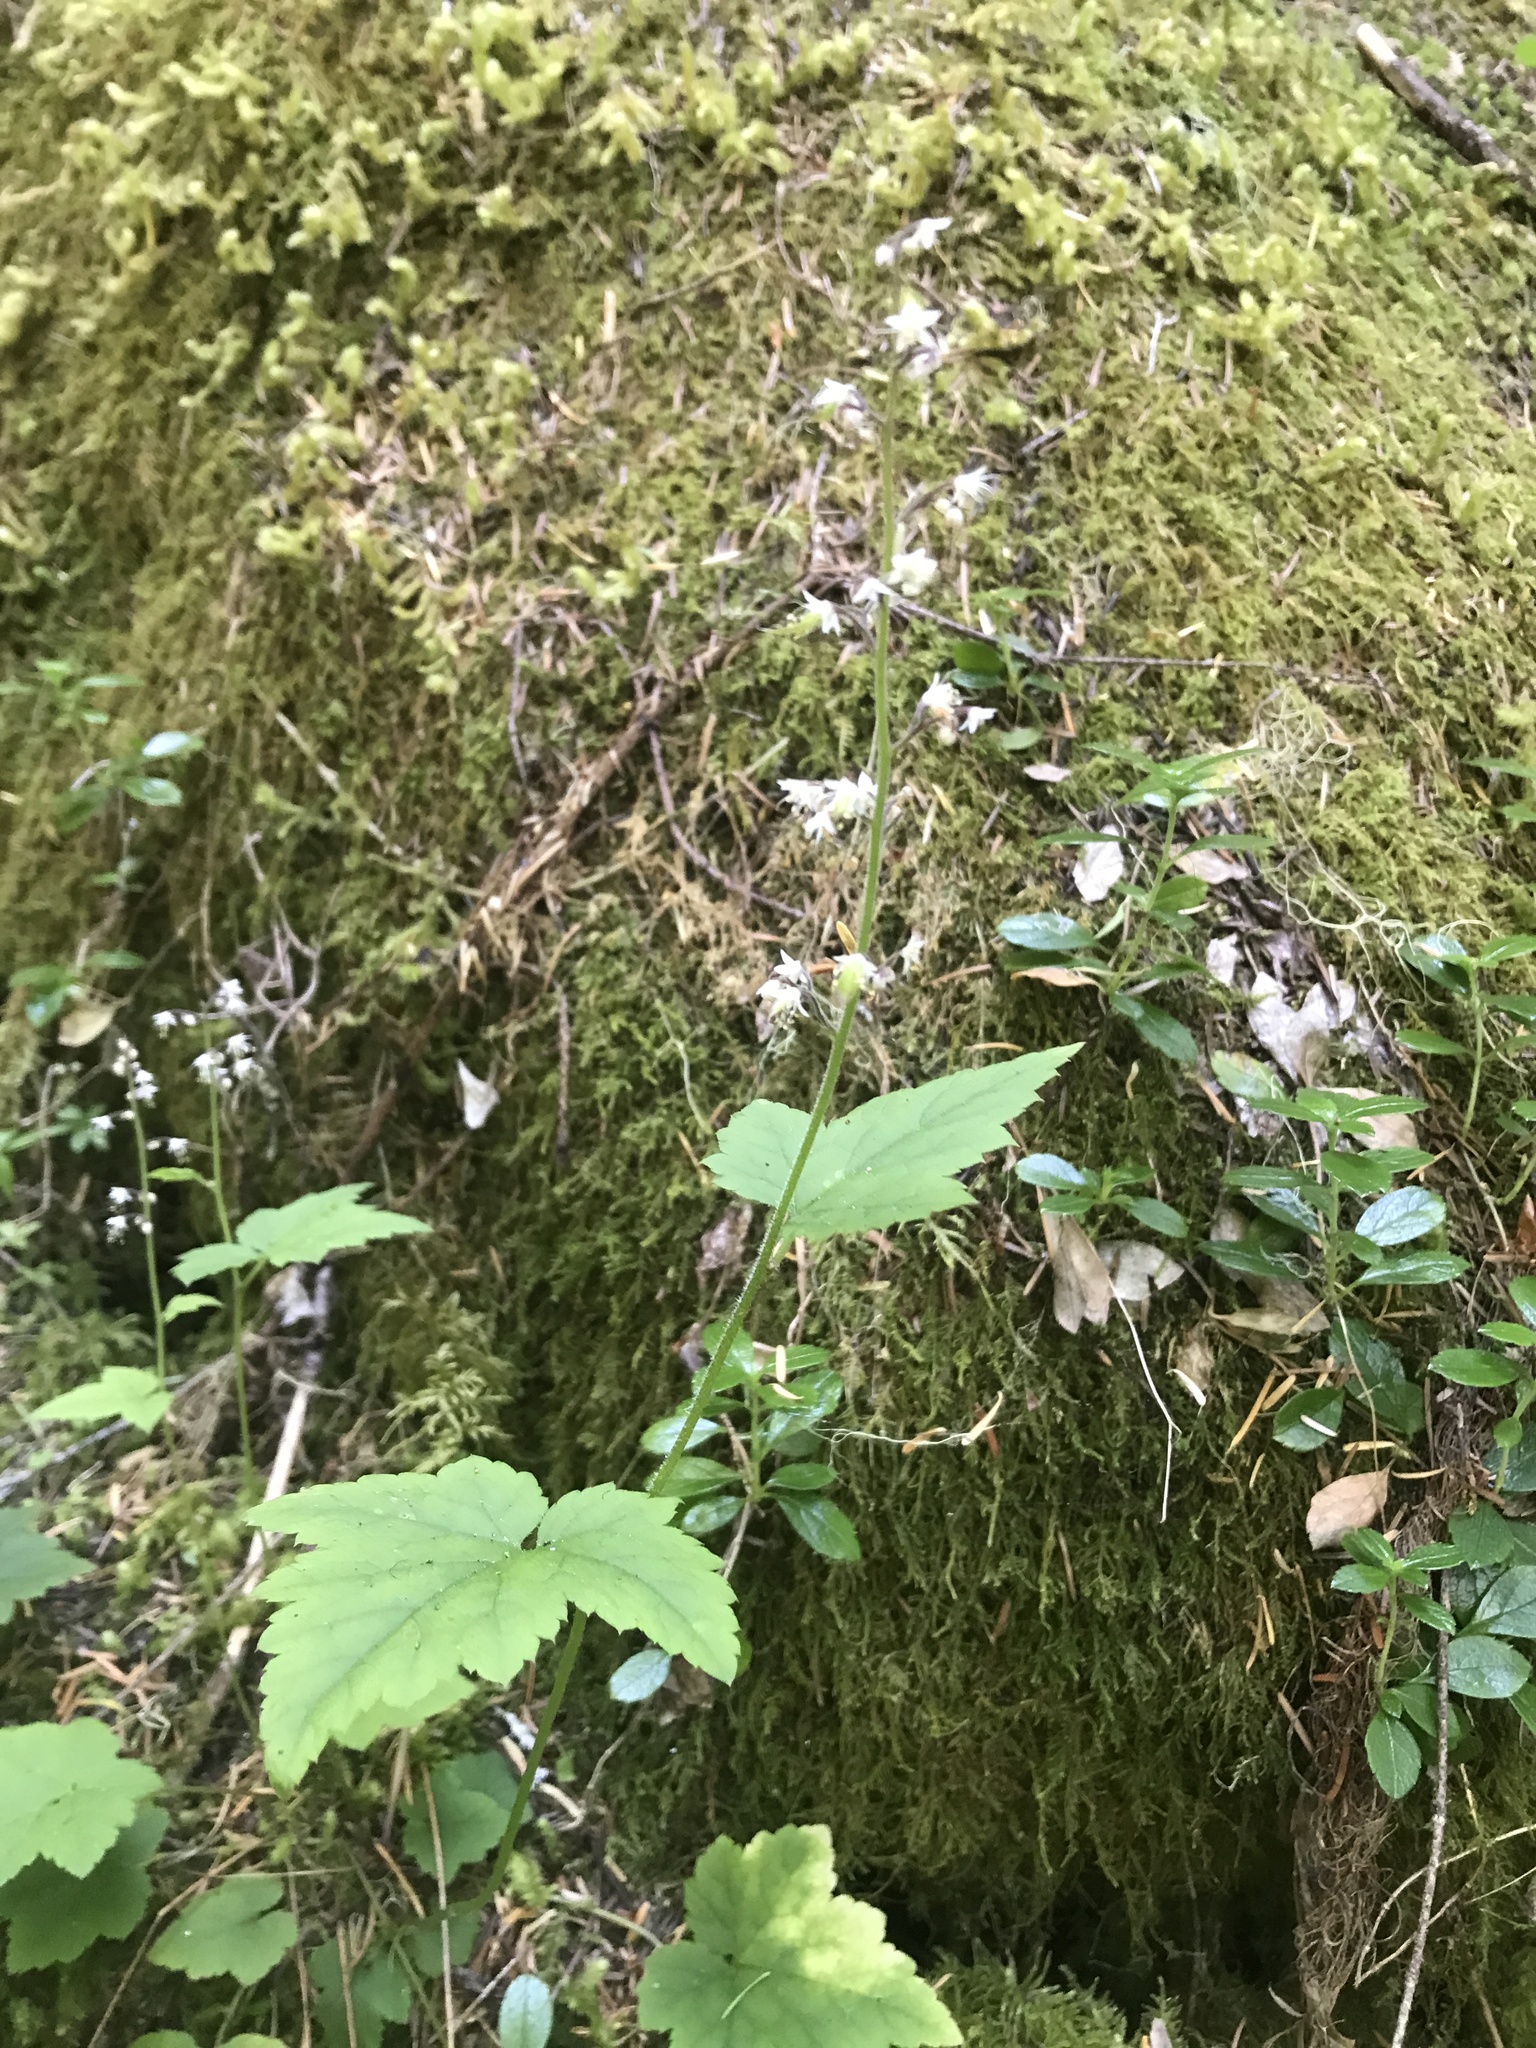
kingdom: Plantae
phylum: Tracheophyta
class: Magnoliopsida
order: Saxifragales
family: Saxifragaceae
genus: Tiarella
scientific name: Tiarella trifoliata
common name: Sugar-scoop
